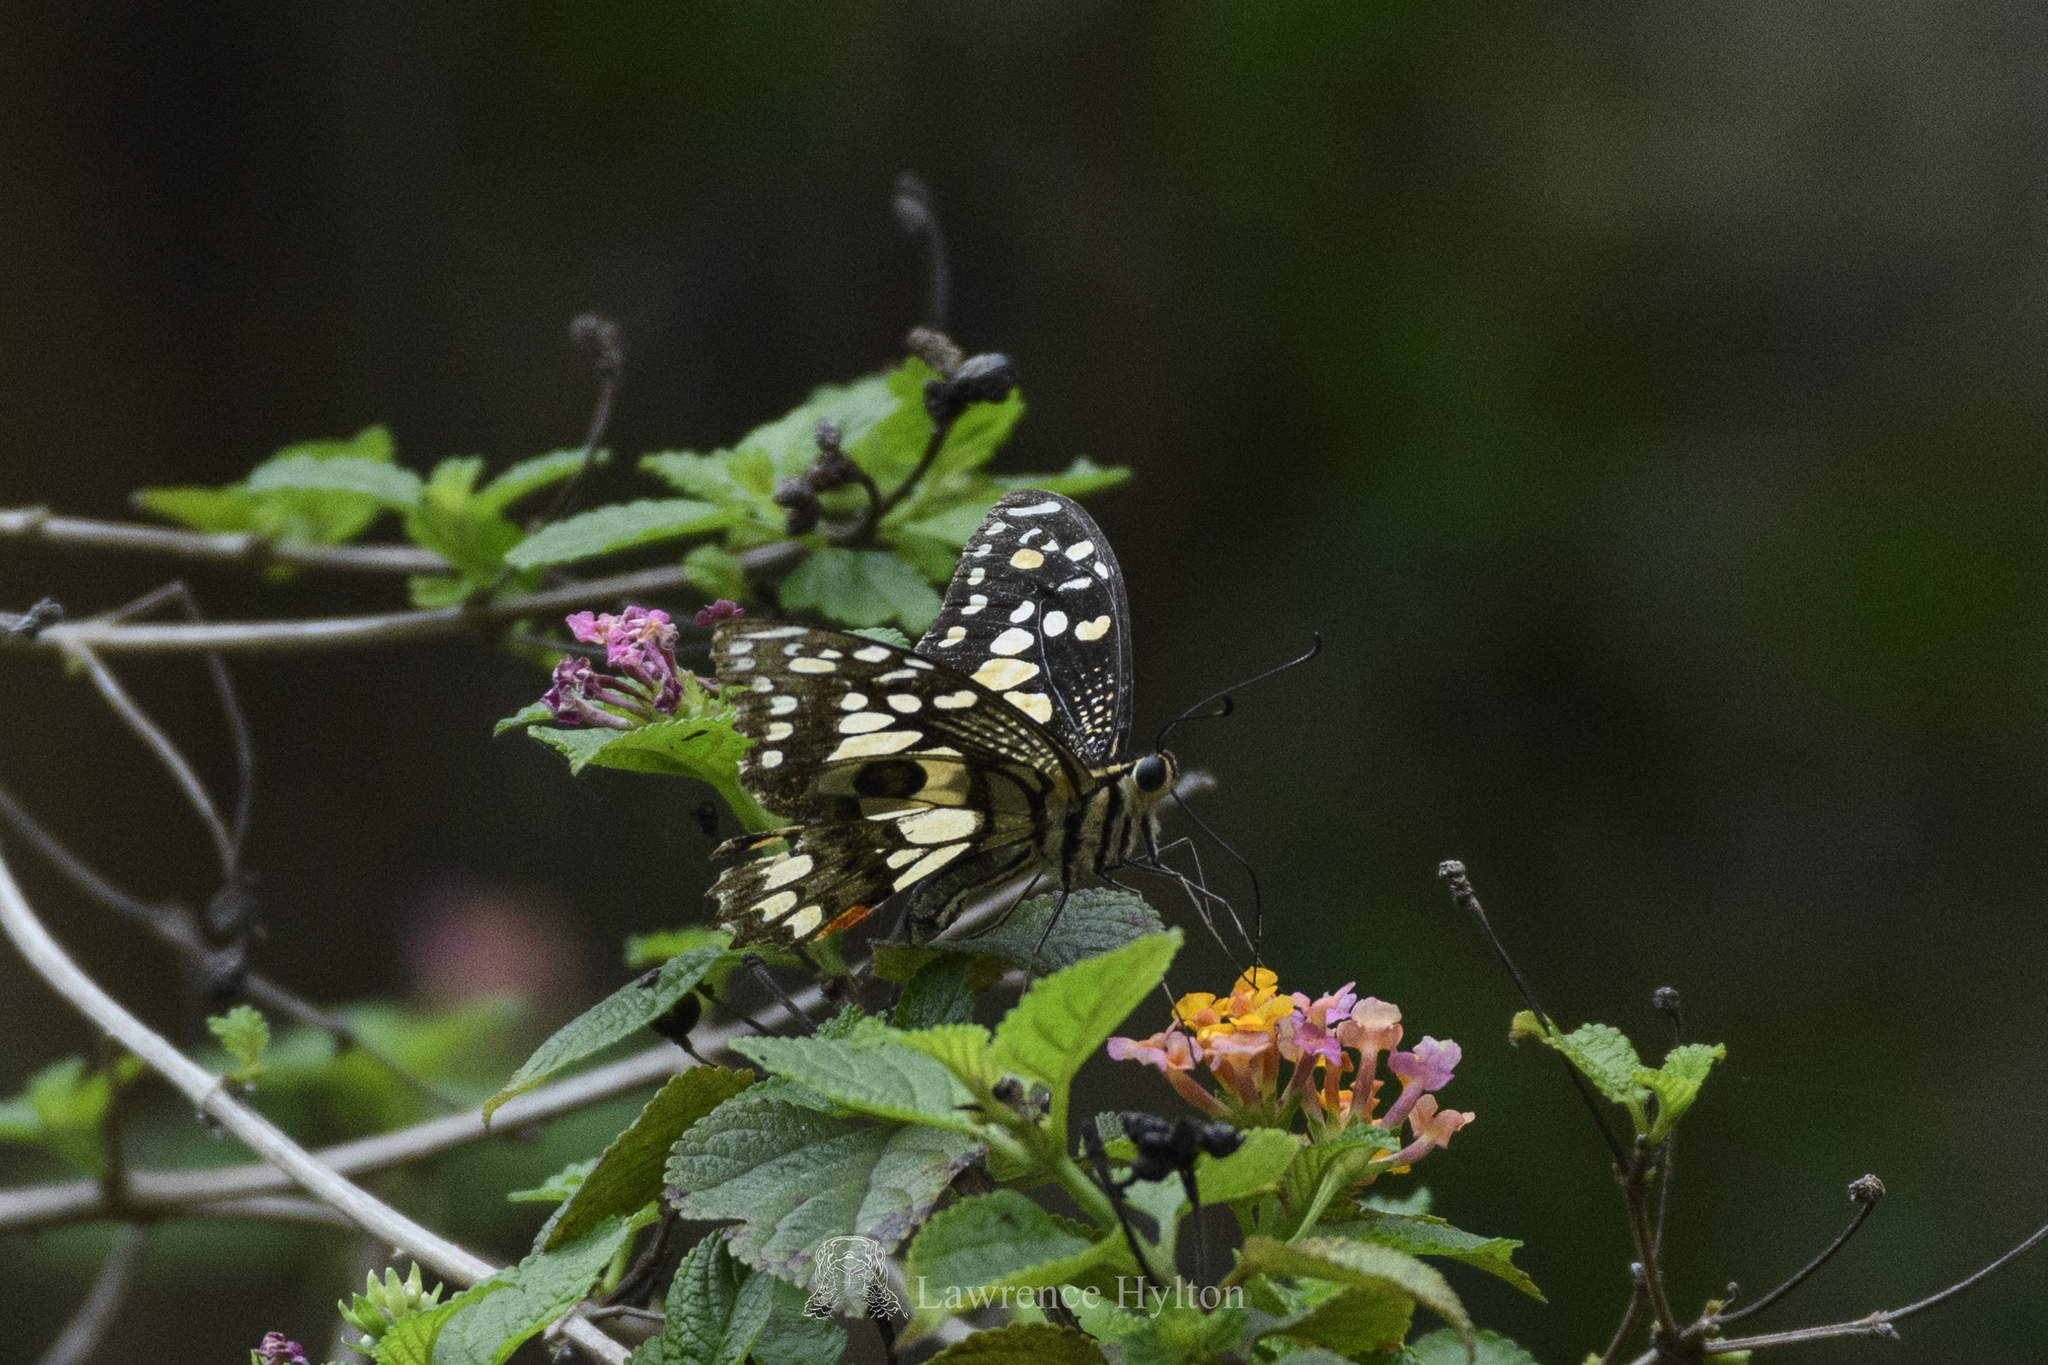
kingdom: Animalia
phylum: Arthropoda
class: Insecta
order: Lepidoptera
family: Papilionidae
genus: Papilio
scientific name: Papilio demoleus
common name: Lime butterfly
